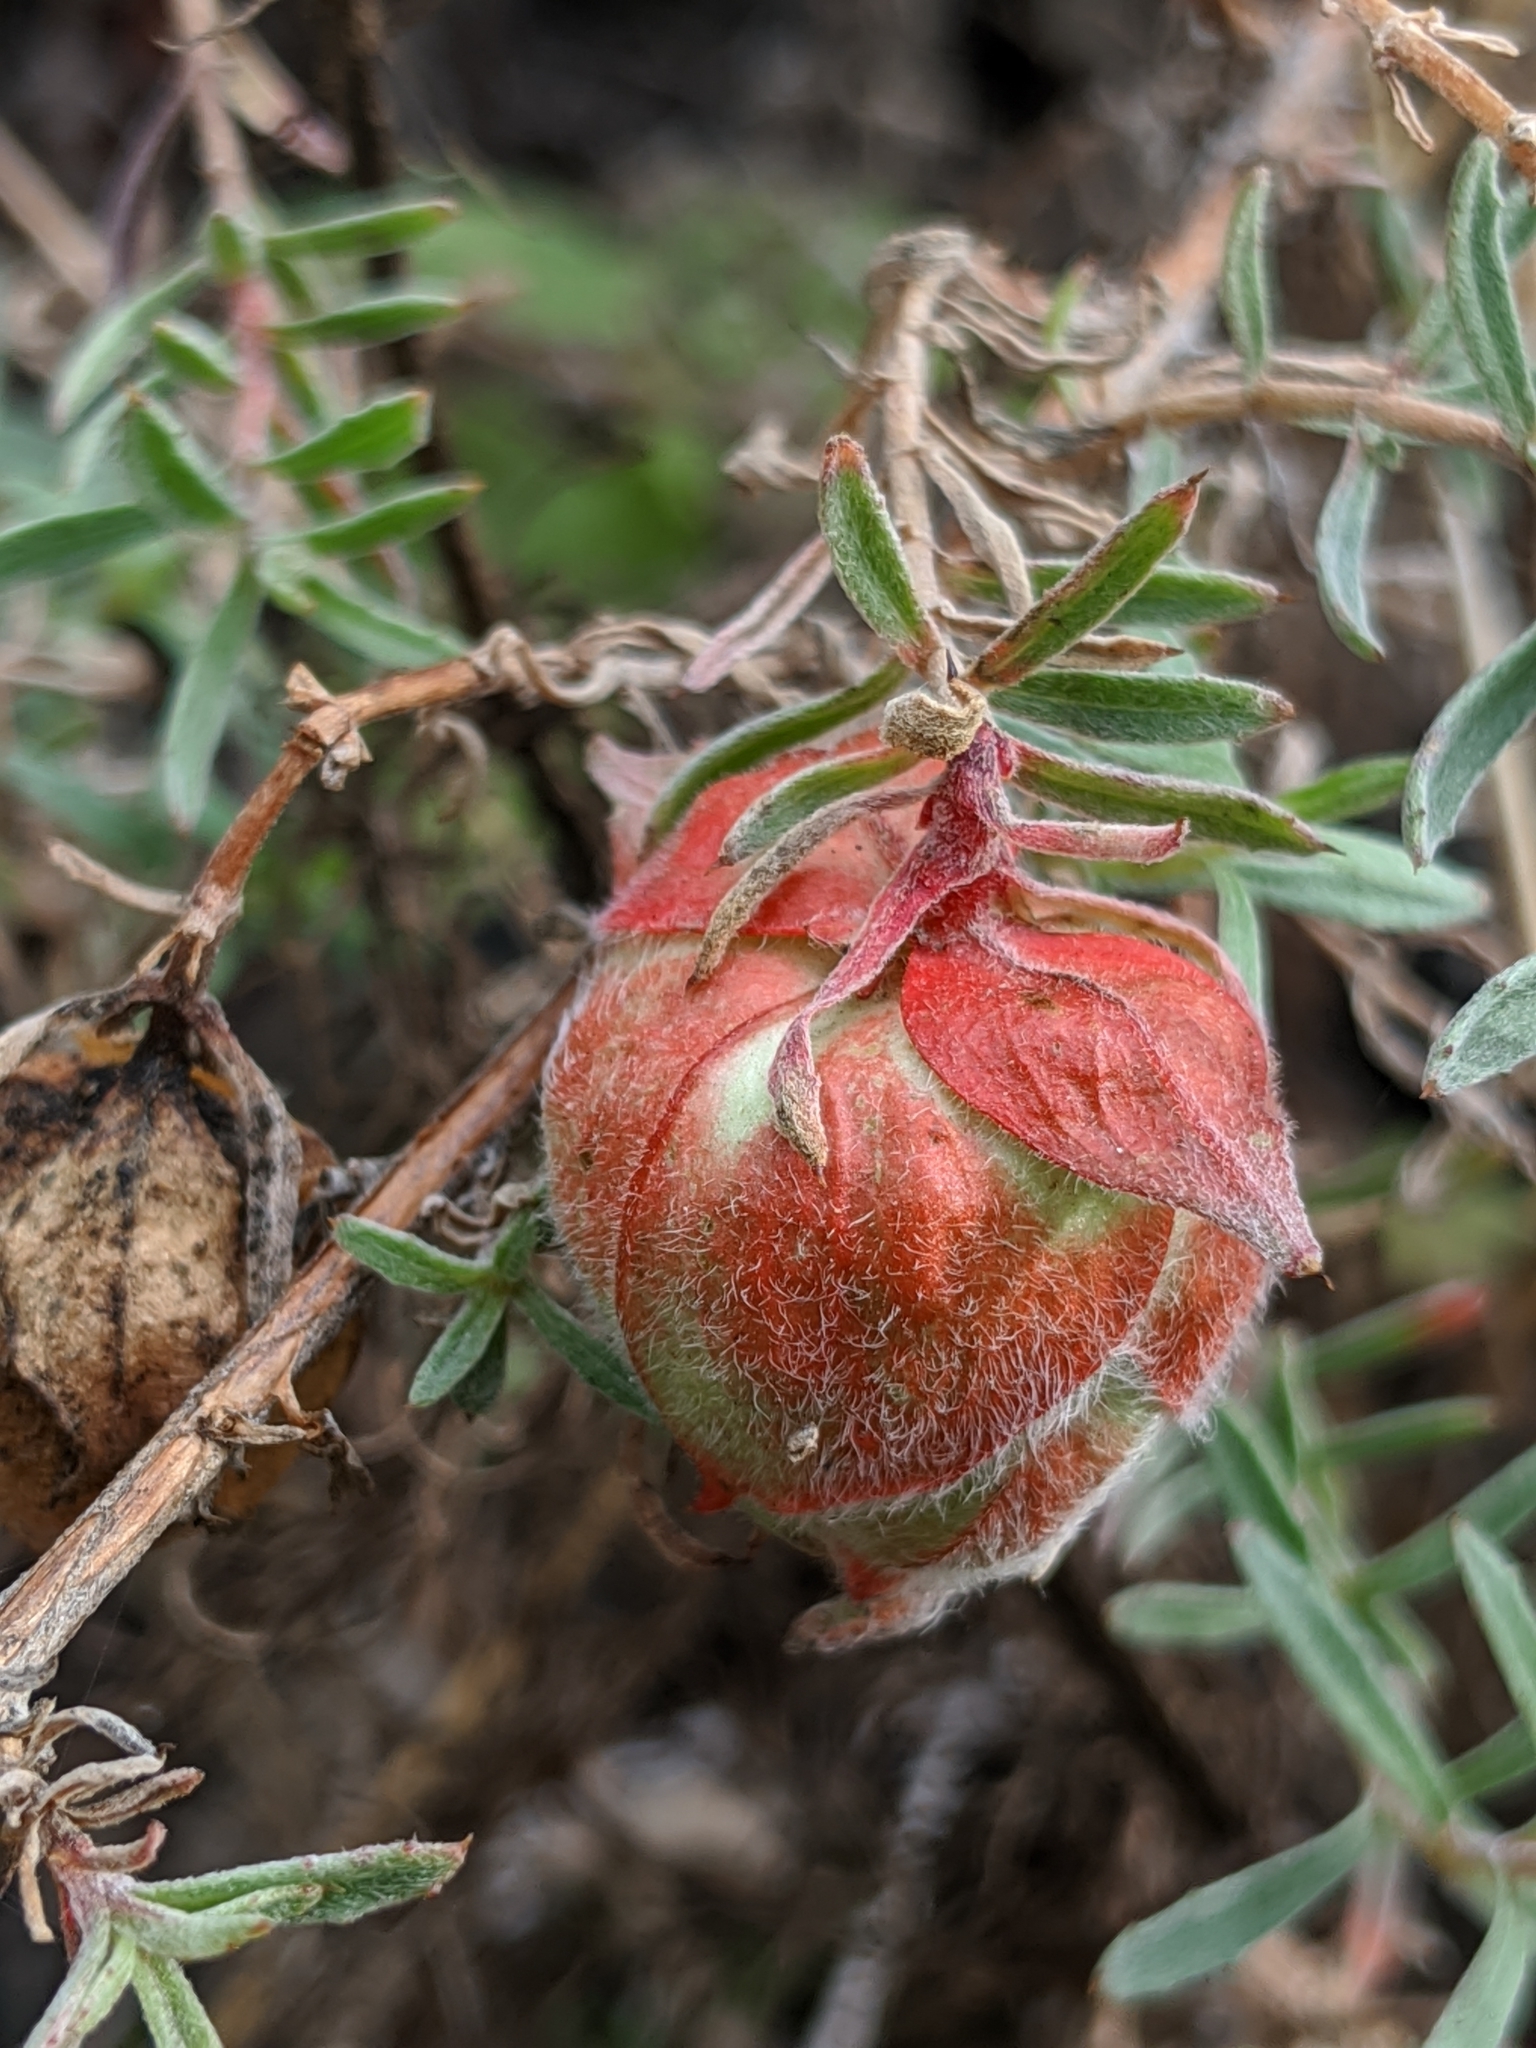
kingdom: Animalia
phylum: Arthropoda
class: Insecta
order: Diptera
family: Cecidomyiidae
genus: Contarinia
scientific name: Contarinia zauschneriae
